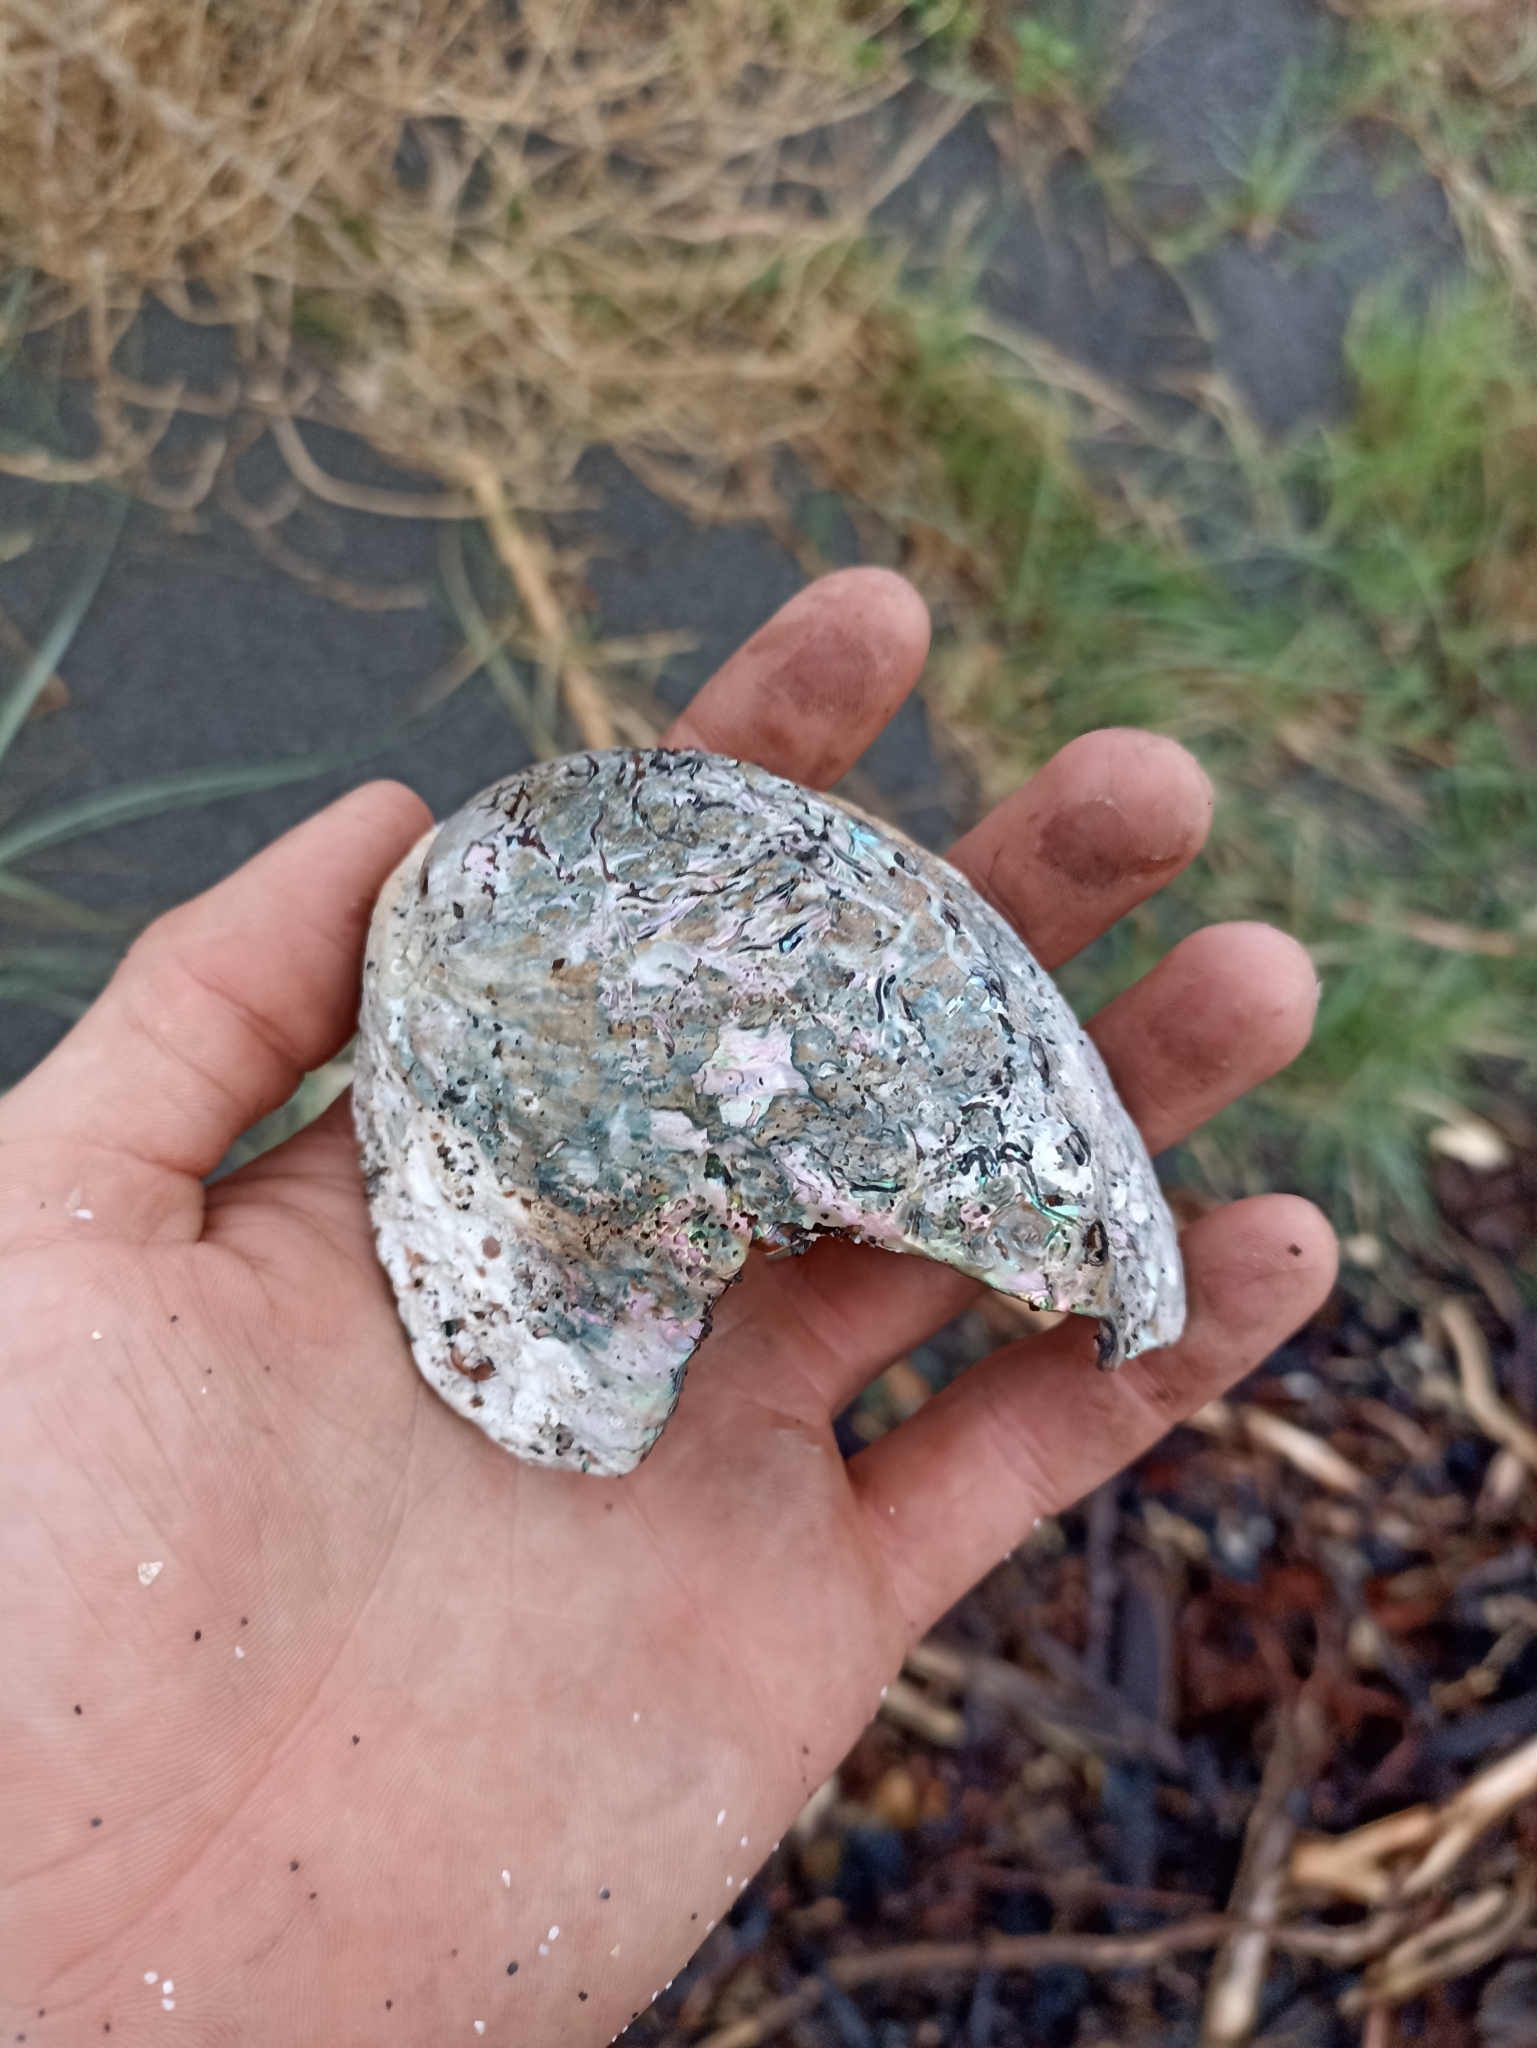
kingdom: Animalia
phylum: Mollusca
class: Gastropoda
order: Lepetellida
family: Haliotidae
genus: Haliotis
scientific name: Haliotis iris
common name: Abalone
